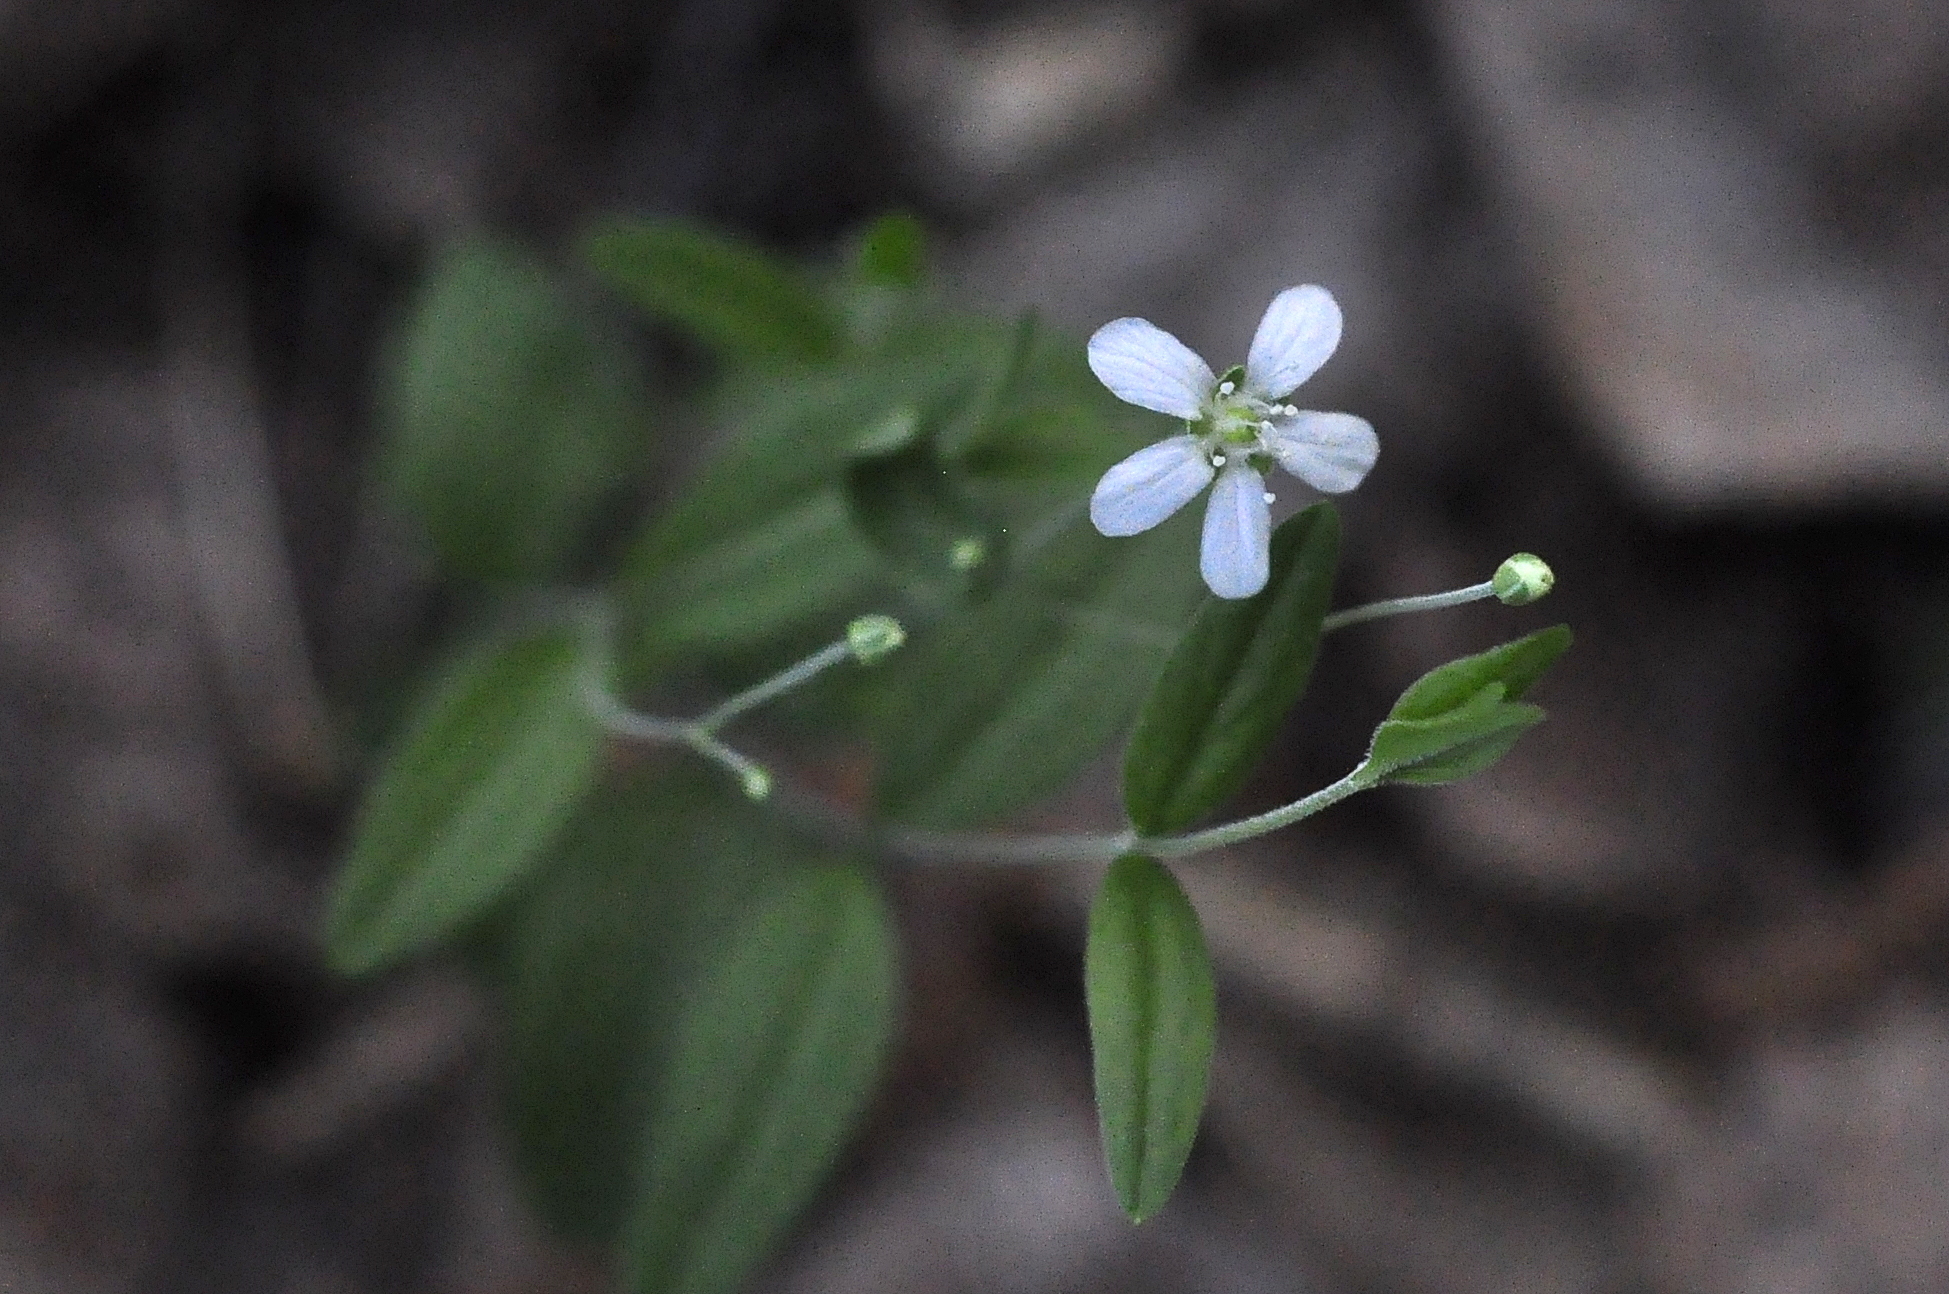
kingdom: Plantae
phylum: Tracheophyta
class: Magnoliopsida
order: Caryophyllales
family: Caryophyllaceae
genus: Moehringia
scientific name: Moehringia lateriflora
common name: Blunt-leaved sandwort
